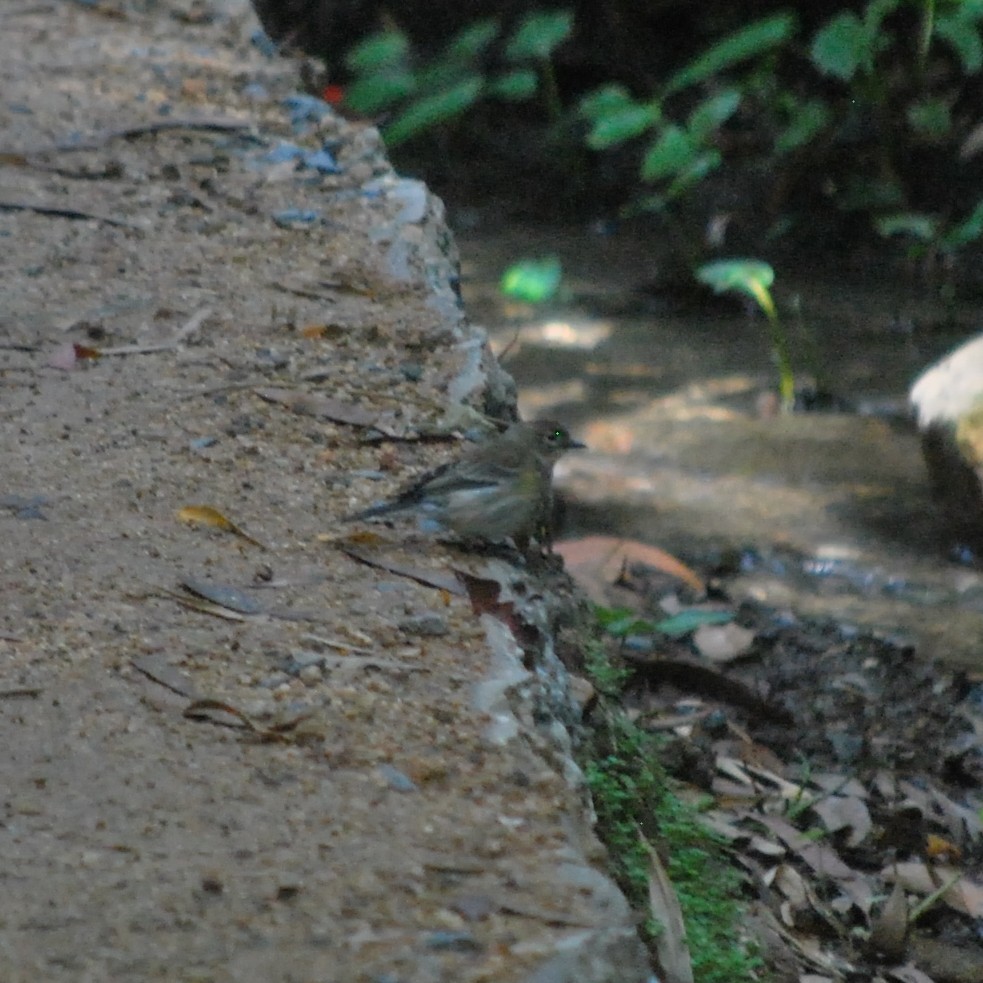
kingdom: Animalia
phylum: Chordata
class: Aves
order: Passeriformes
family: Parulidae
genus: Setophaga
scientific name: Setophaga coronata
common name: Myrtle warbler
